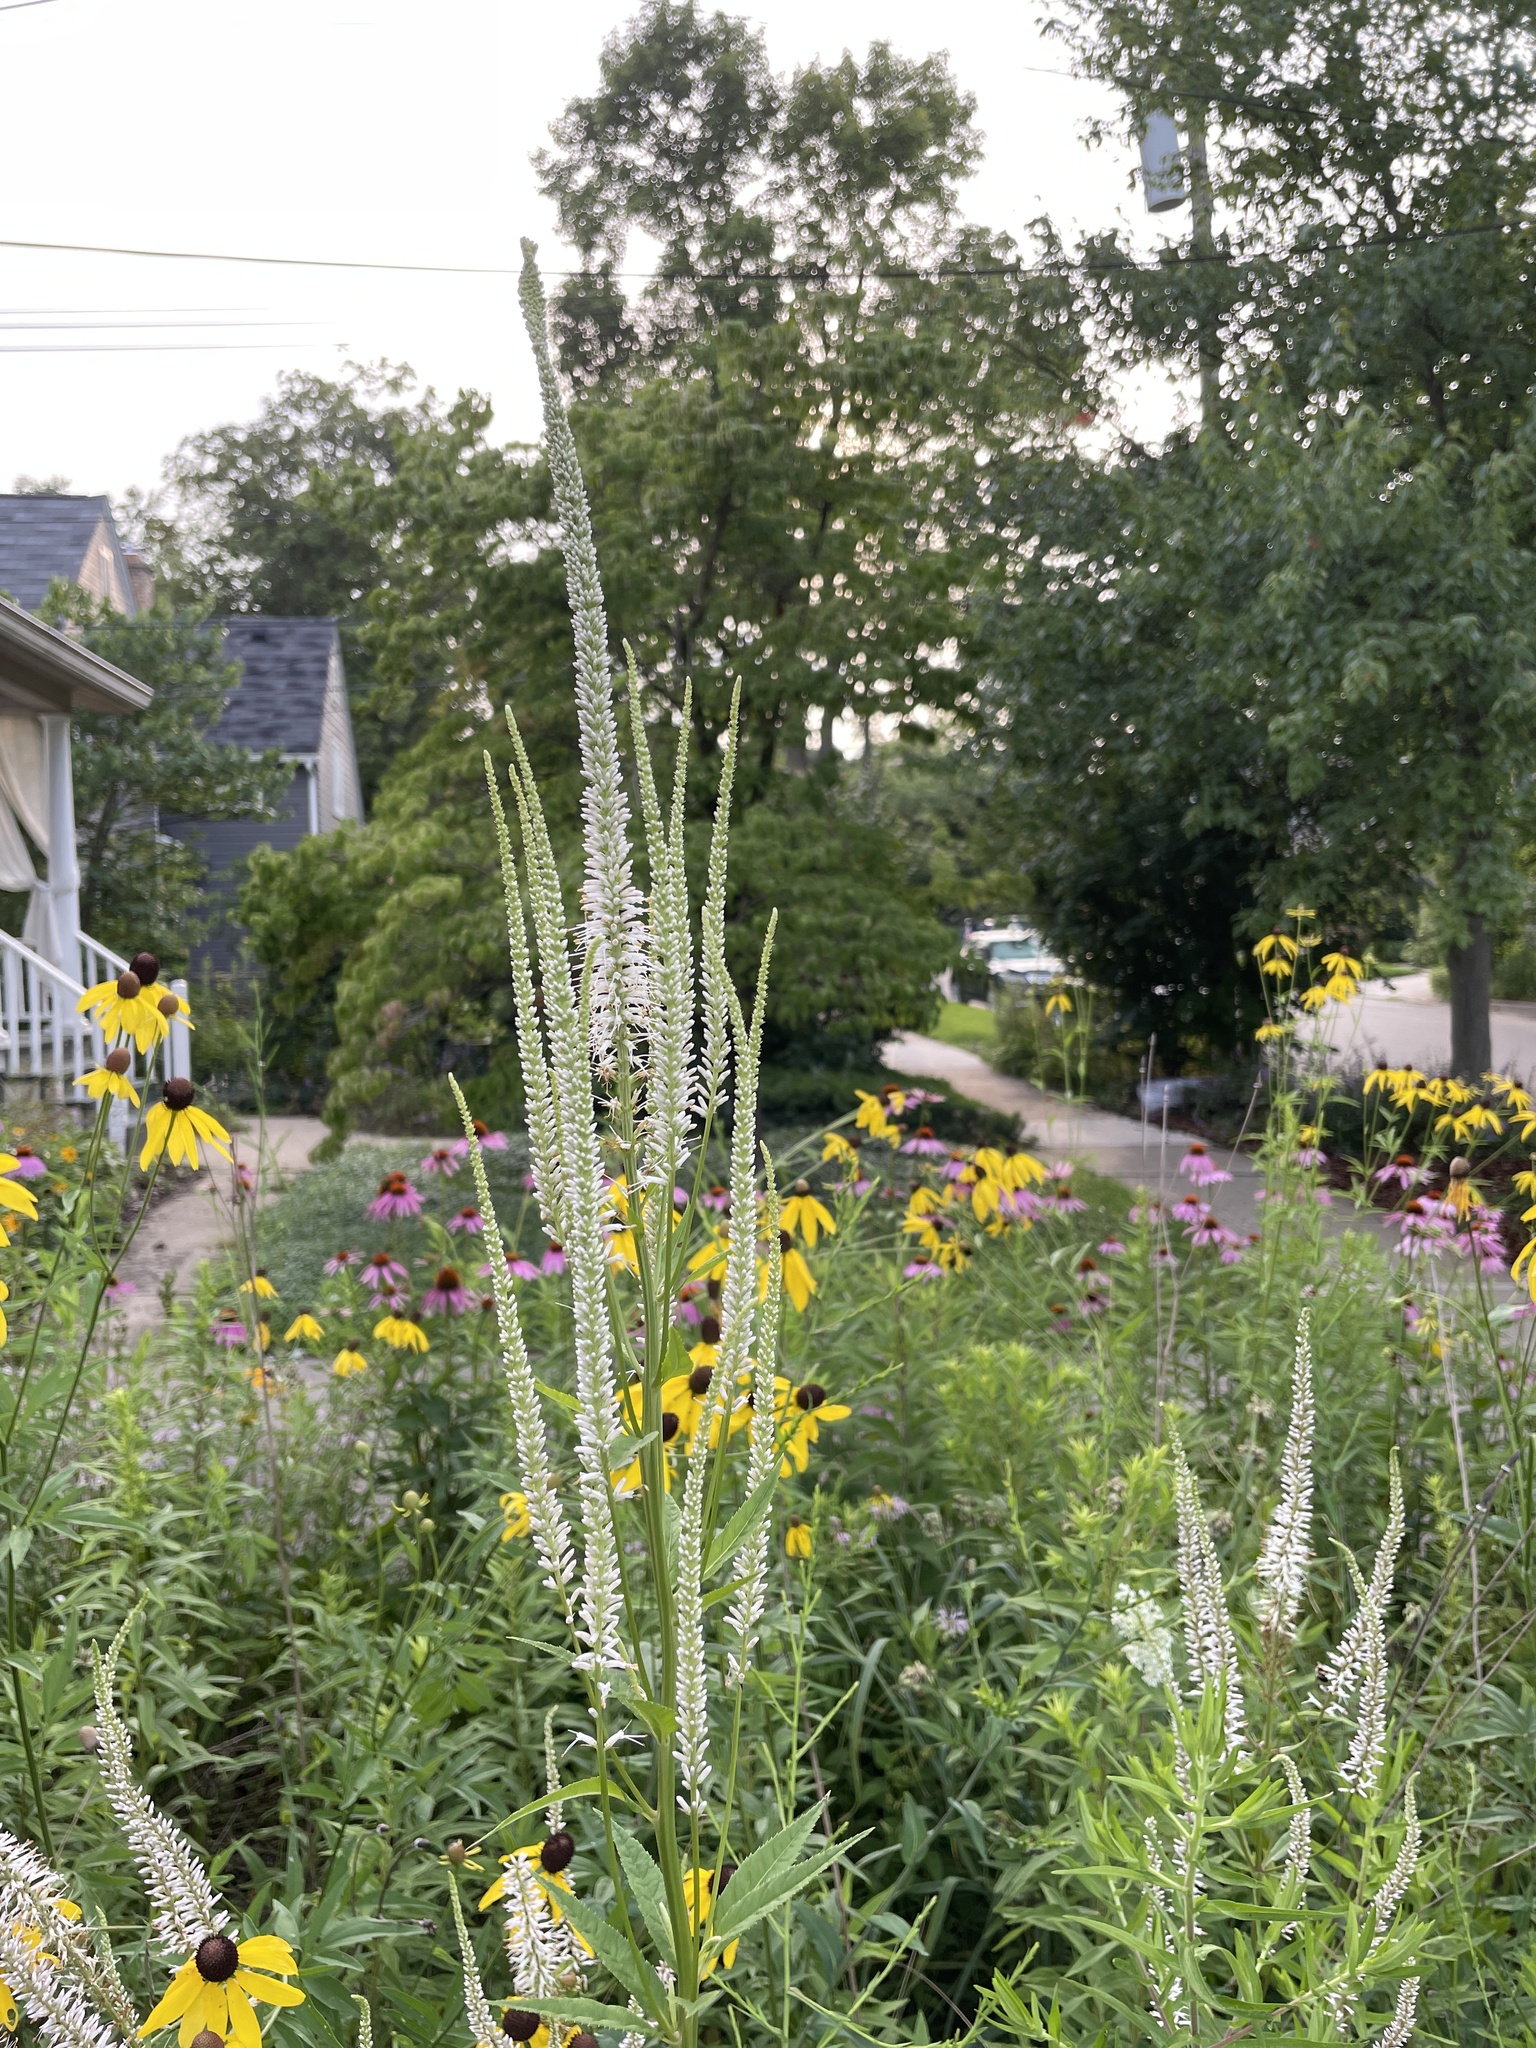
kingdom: Plantae
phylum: Tracheophyta
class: Magnoliopsida
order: Lamiales
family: Plantaginaceae
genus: Veronicastrum
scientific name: Veronicastrum virginicum
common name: Blackroot
